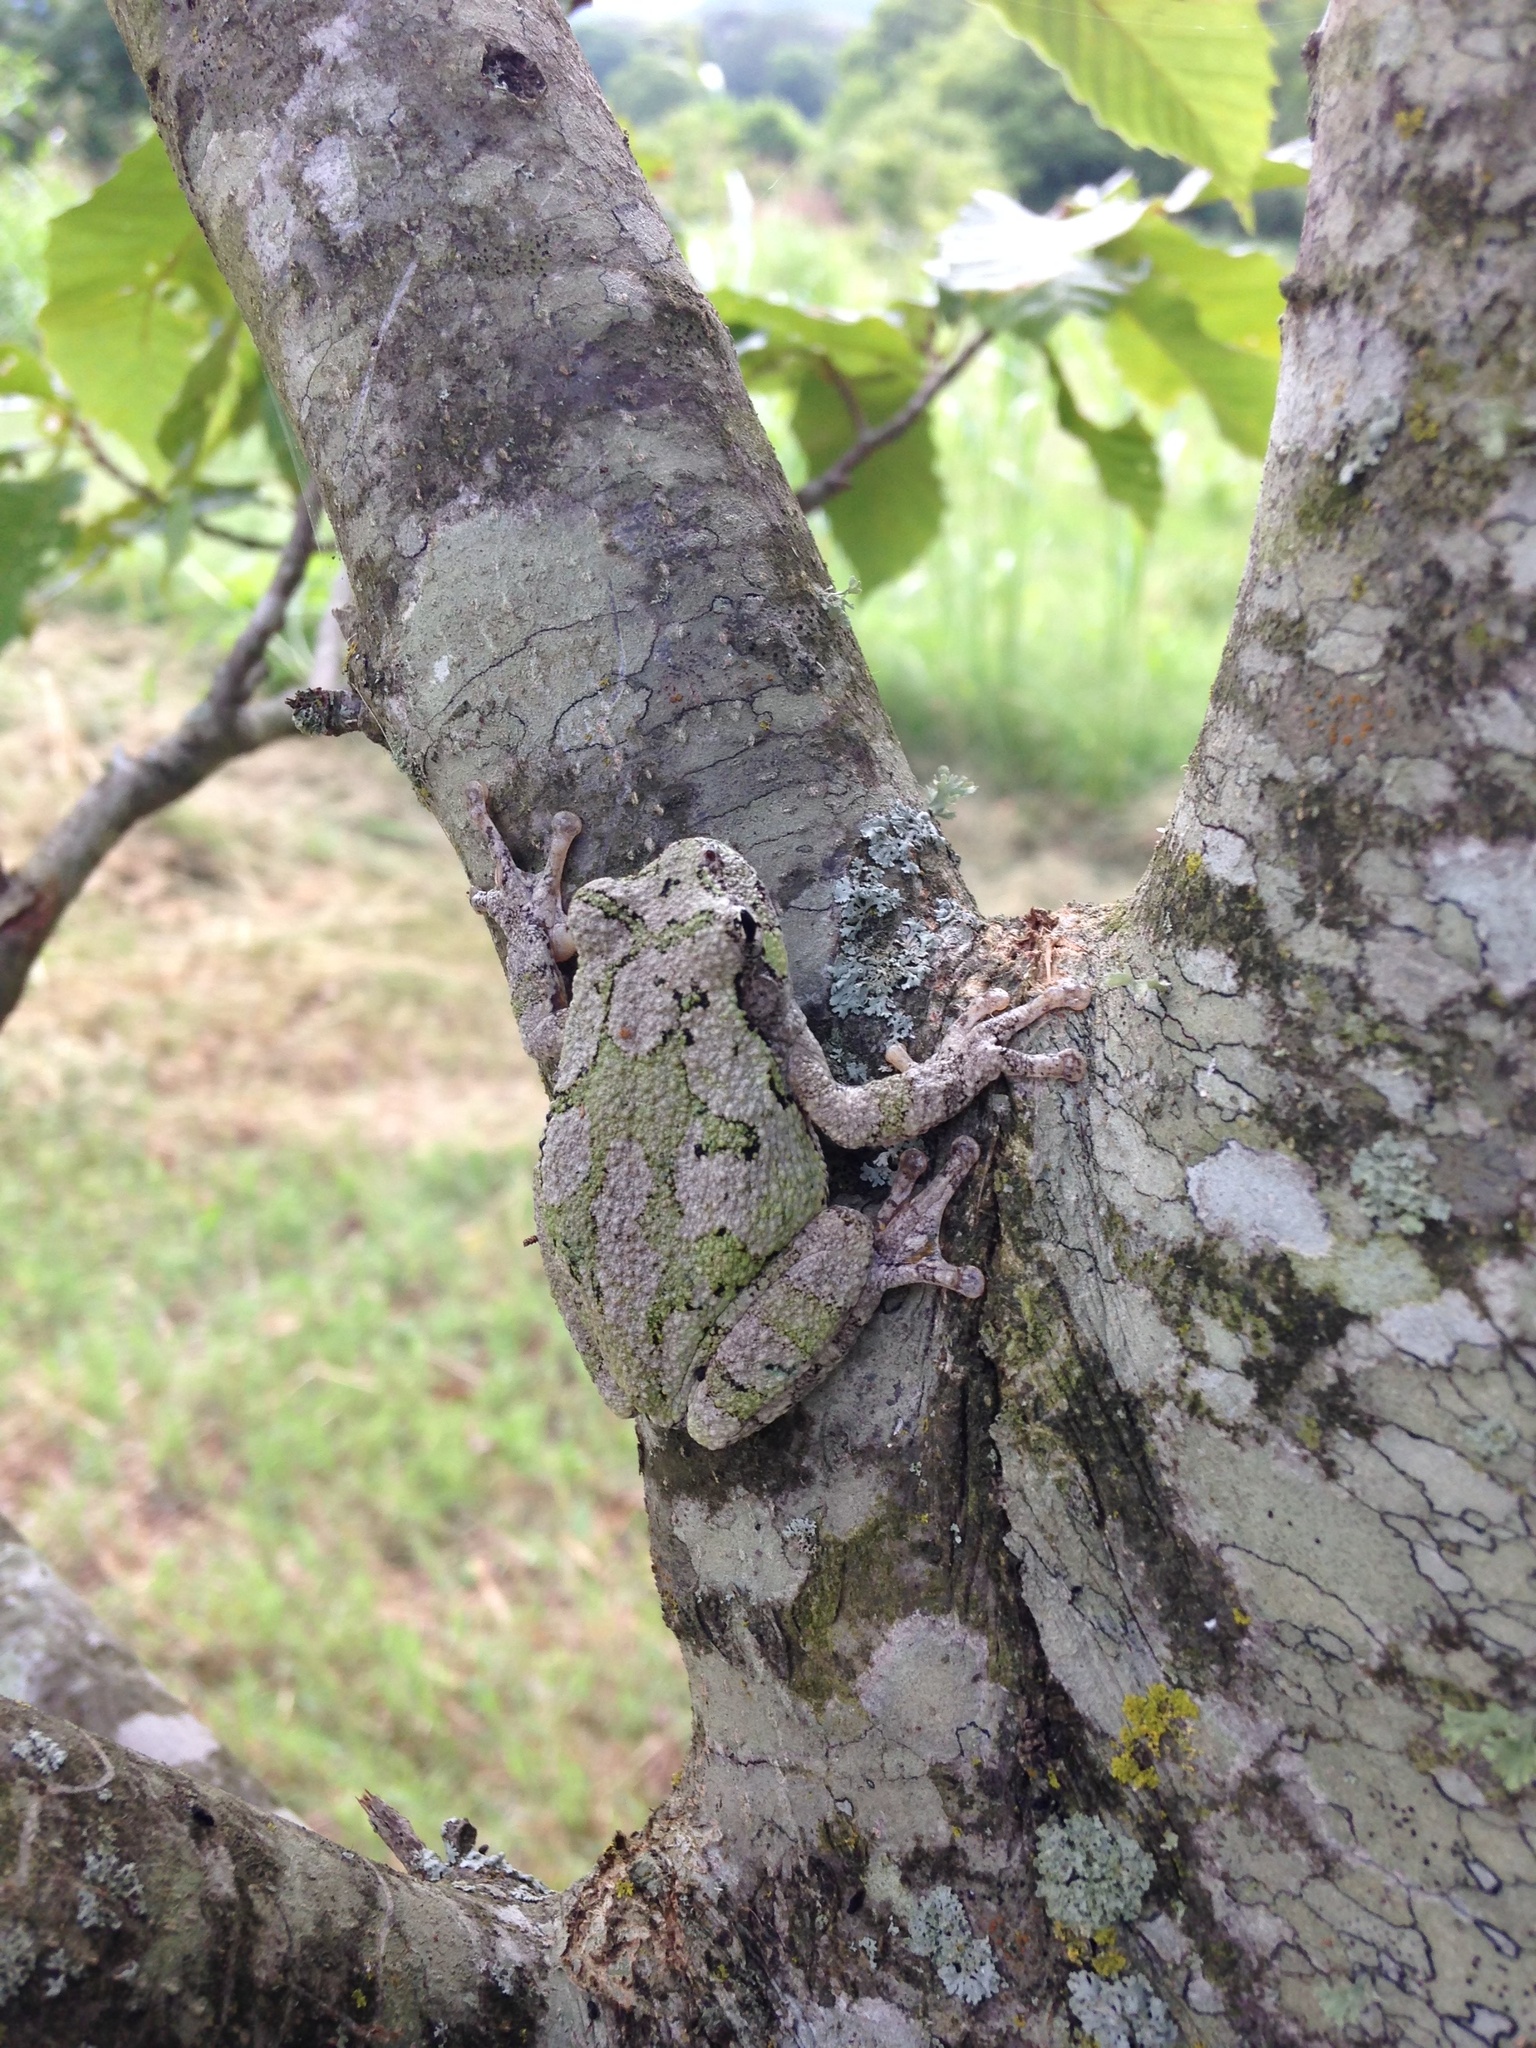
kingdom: Animalia
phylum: Chordata
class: Amphibia
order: Anura
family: Hylidae
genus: Dryophytes
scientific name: Dryophytes chrysoscelis
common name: Cope's gray treefrog
